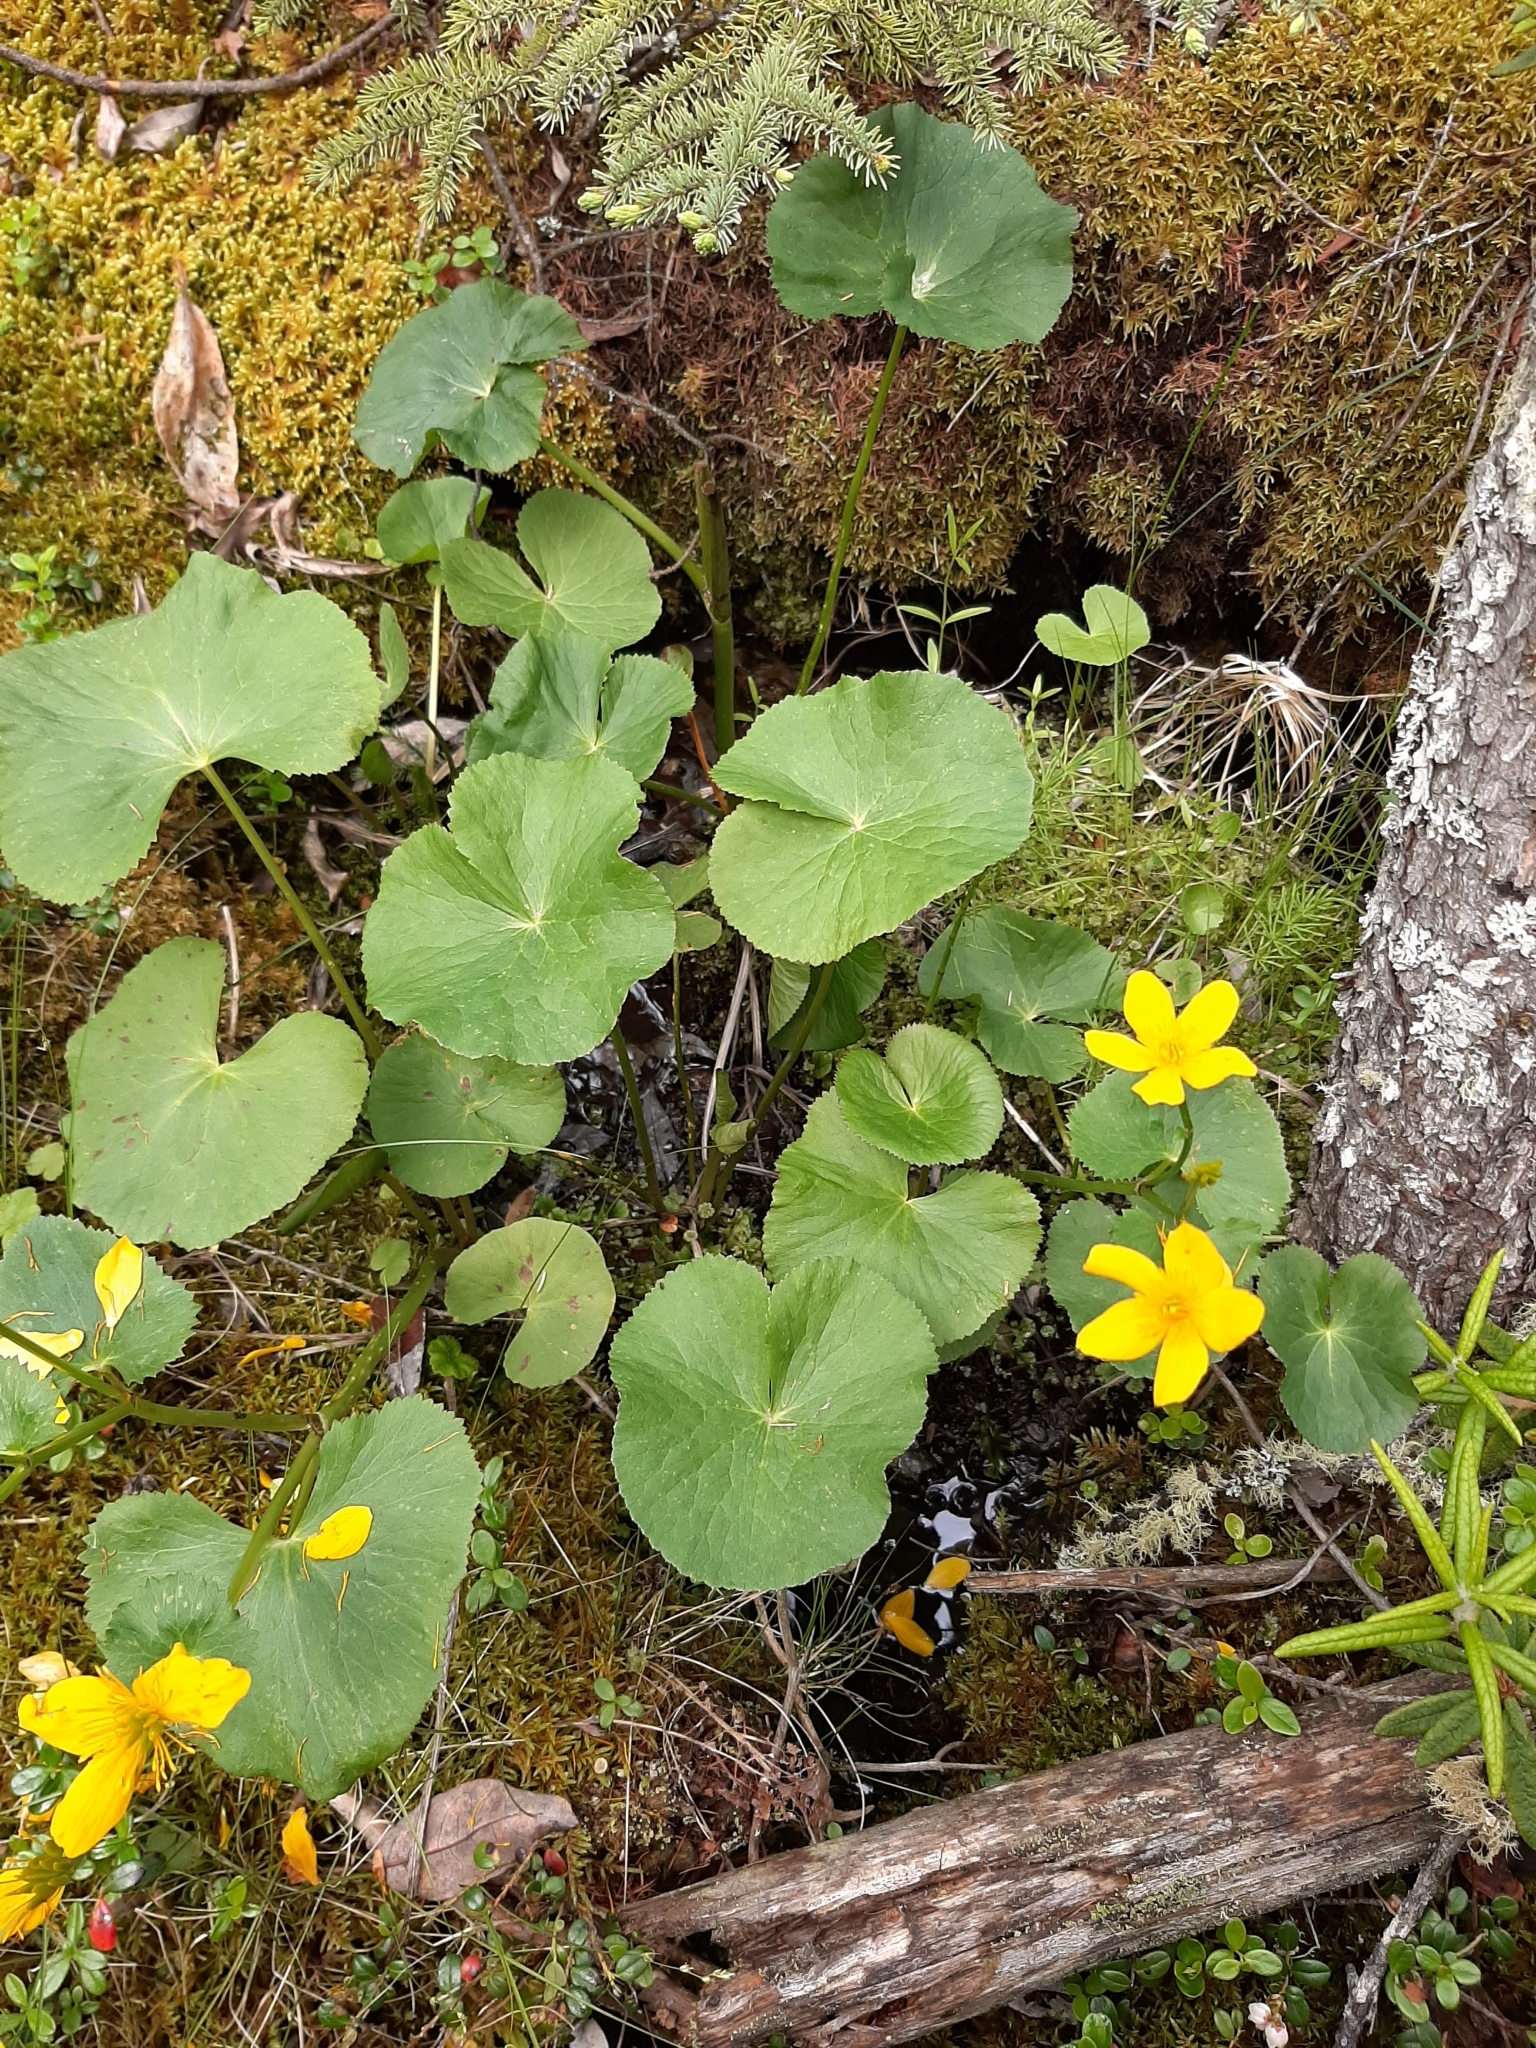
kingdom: Plantae
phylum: Tracheophyta
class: Magnoliopsida
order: Ranunculales
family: Ranunculaceae
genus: Caltha
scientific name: Caltha palustris
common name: Marsh marigold
